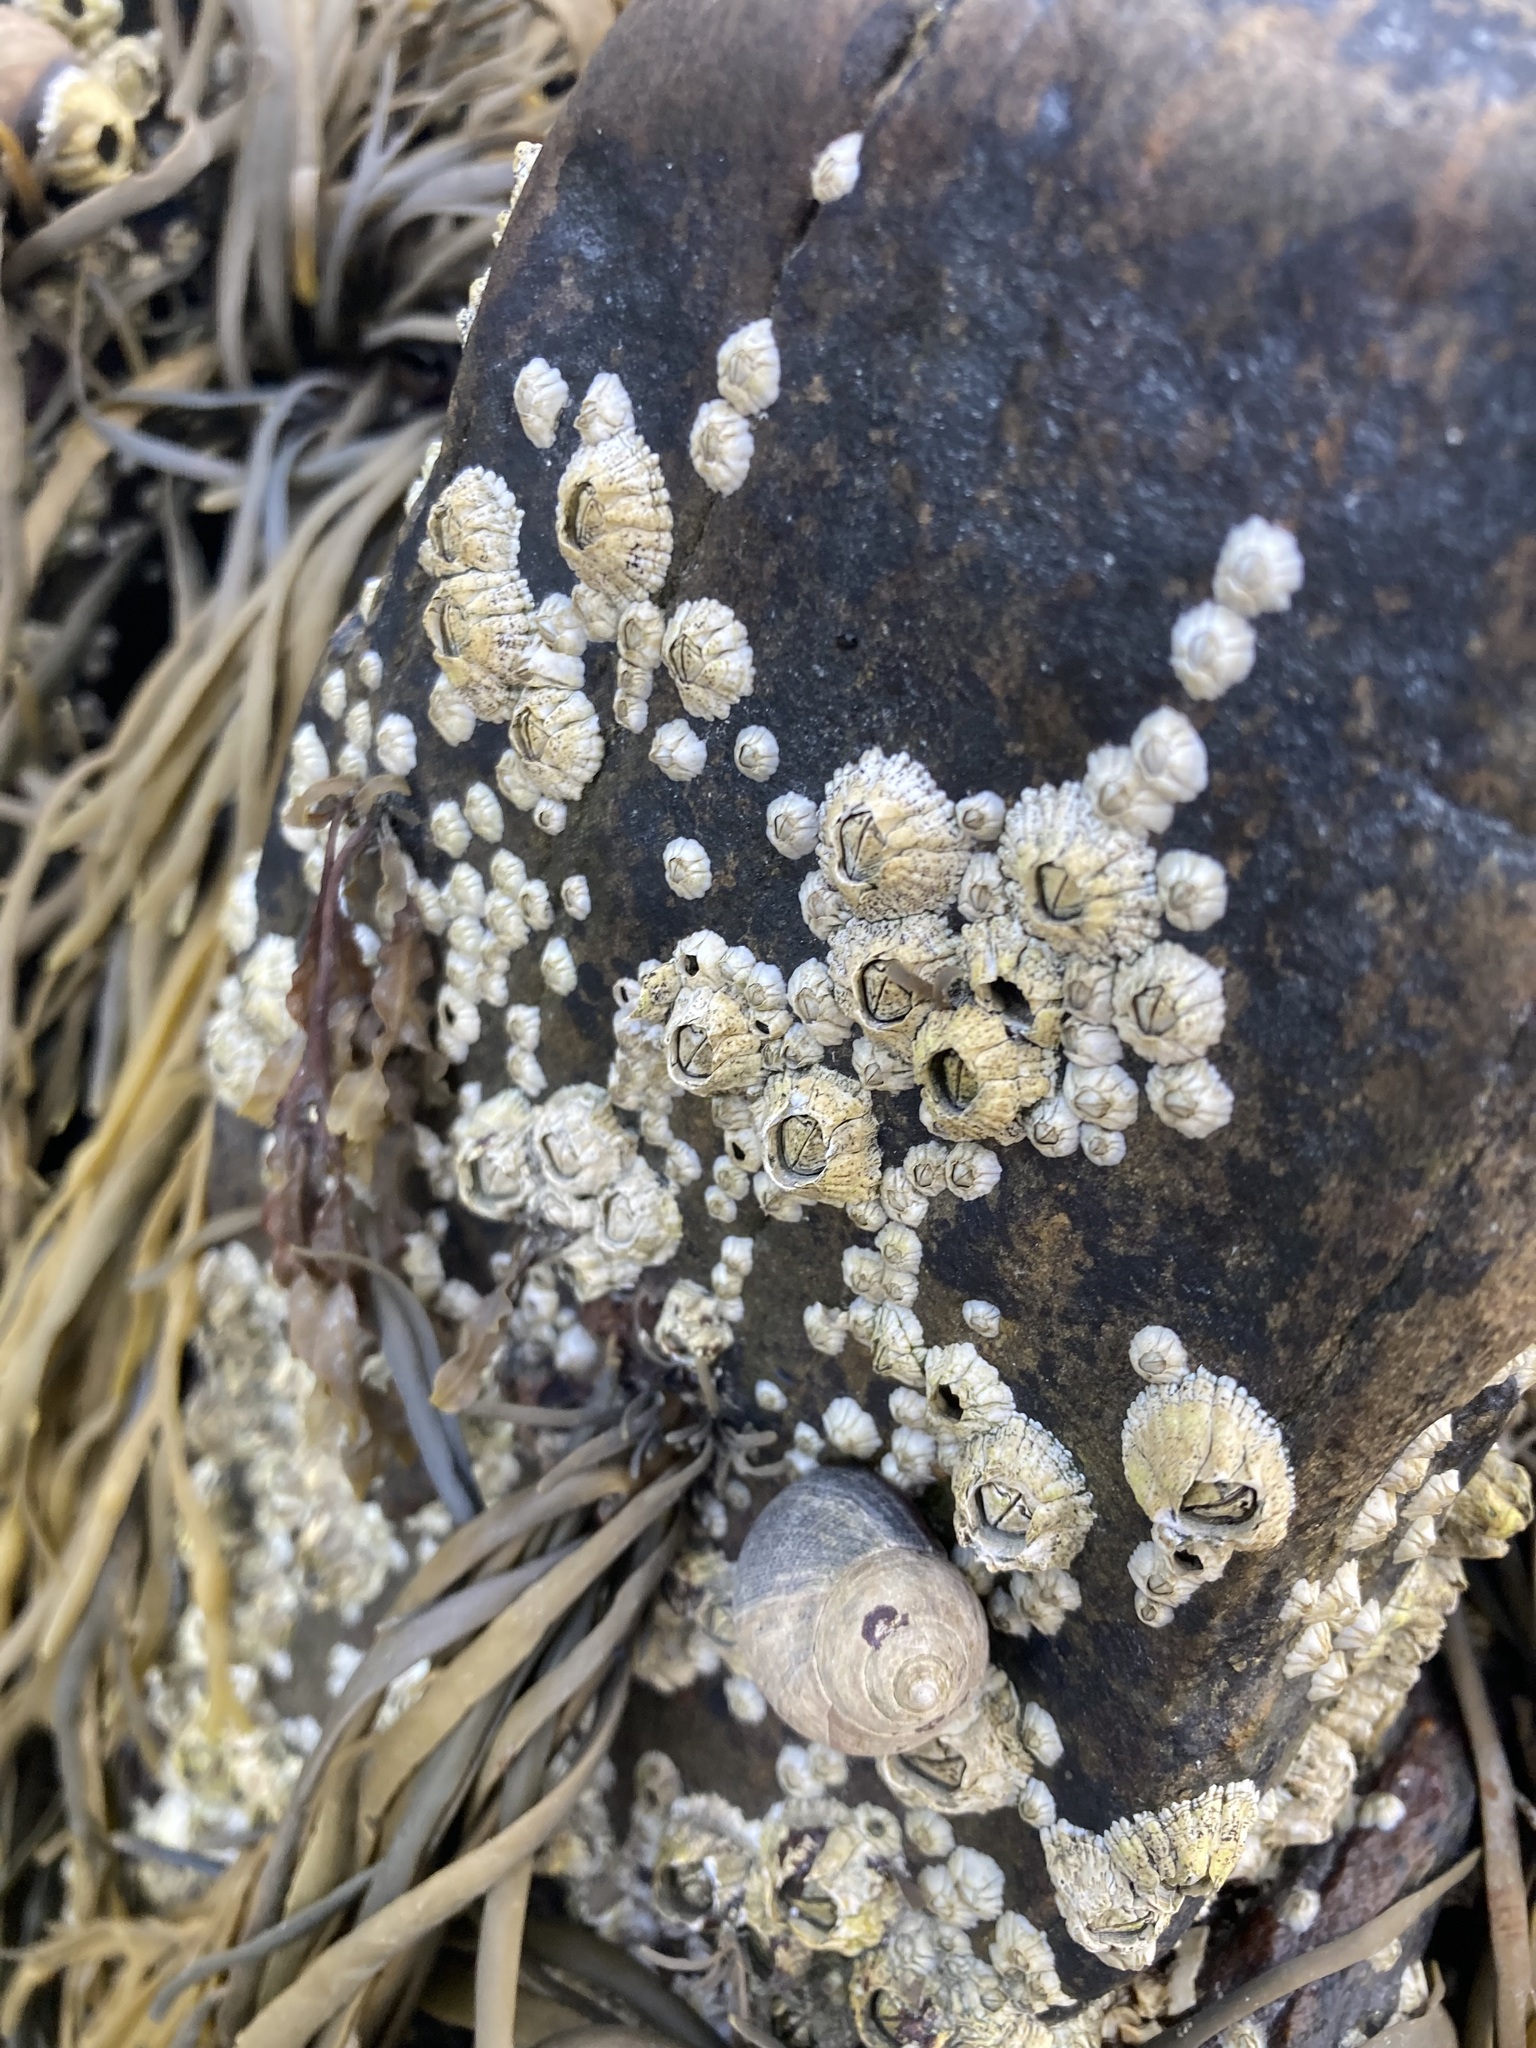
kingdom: Animalia
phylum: Mollusca
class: Gastropoda
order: Littorinimorpha
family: Littorinidae
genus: Littorina
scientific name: Littorina littorea
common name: Common periwinkle
